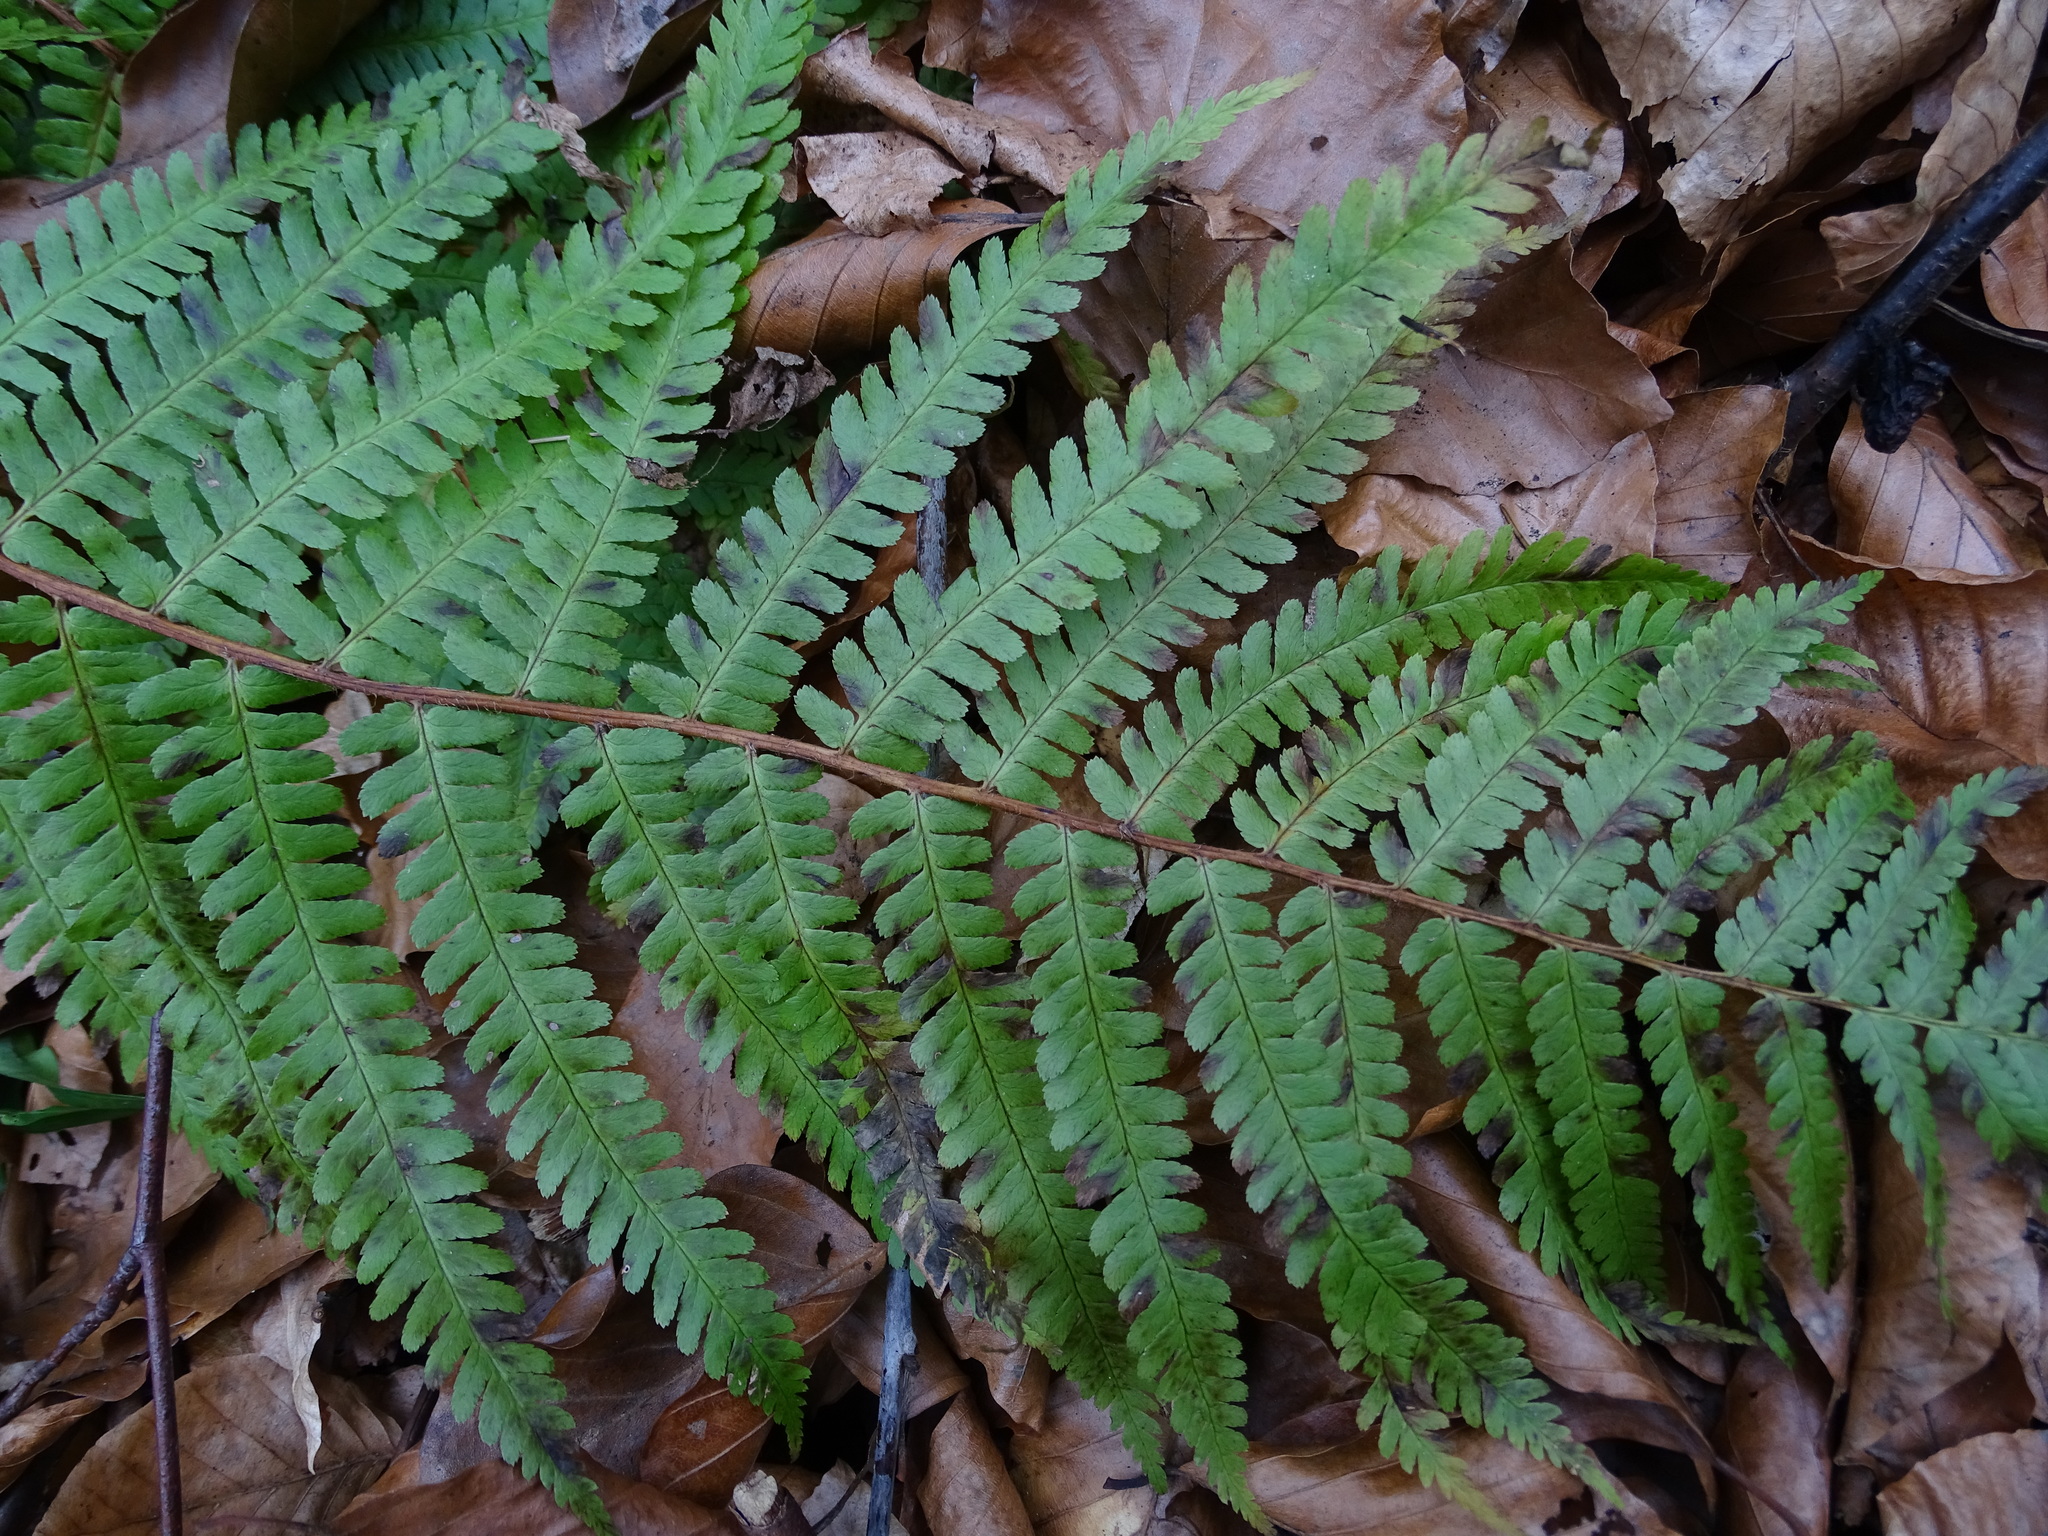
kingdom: Plantae
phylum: Tracheophyta
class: Polypodiopsida
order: Polypodiales
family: Dryopteridaceae
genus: Dryopteris
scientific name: Dryopteris filix-mas
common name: Male fern
